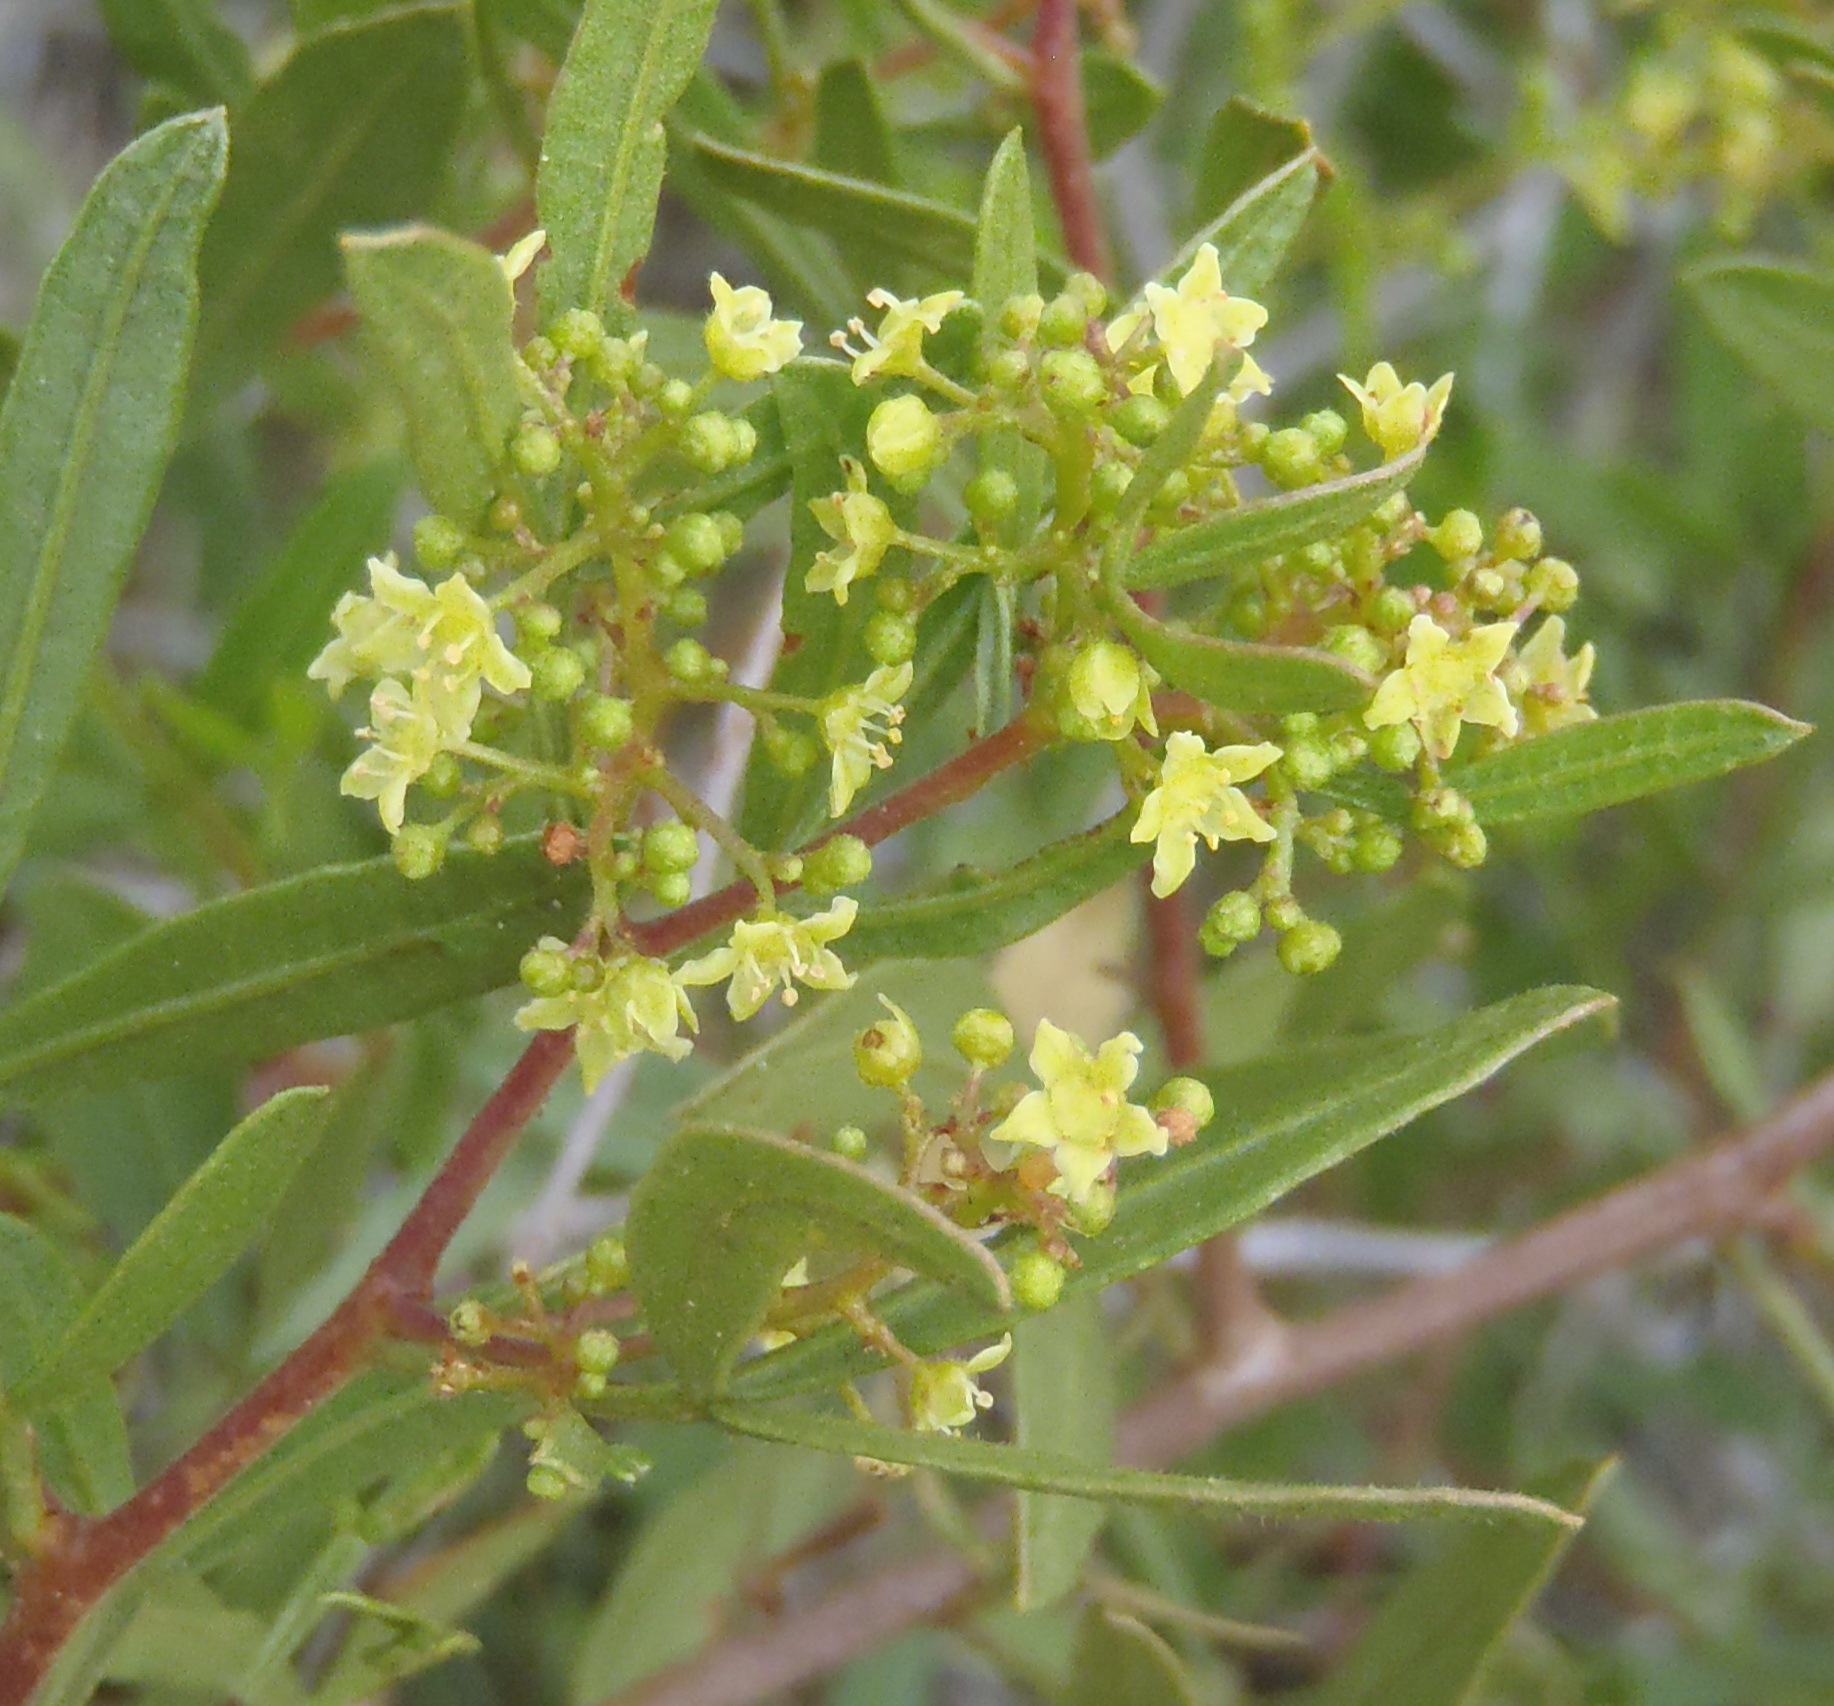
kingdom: Plantae
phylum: Tracheophyta
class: Magnoliopsida
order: Sapindales
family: Anacardiaceae
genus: Searsia
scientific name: Searsia ciliata
